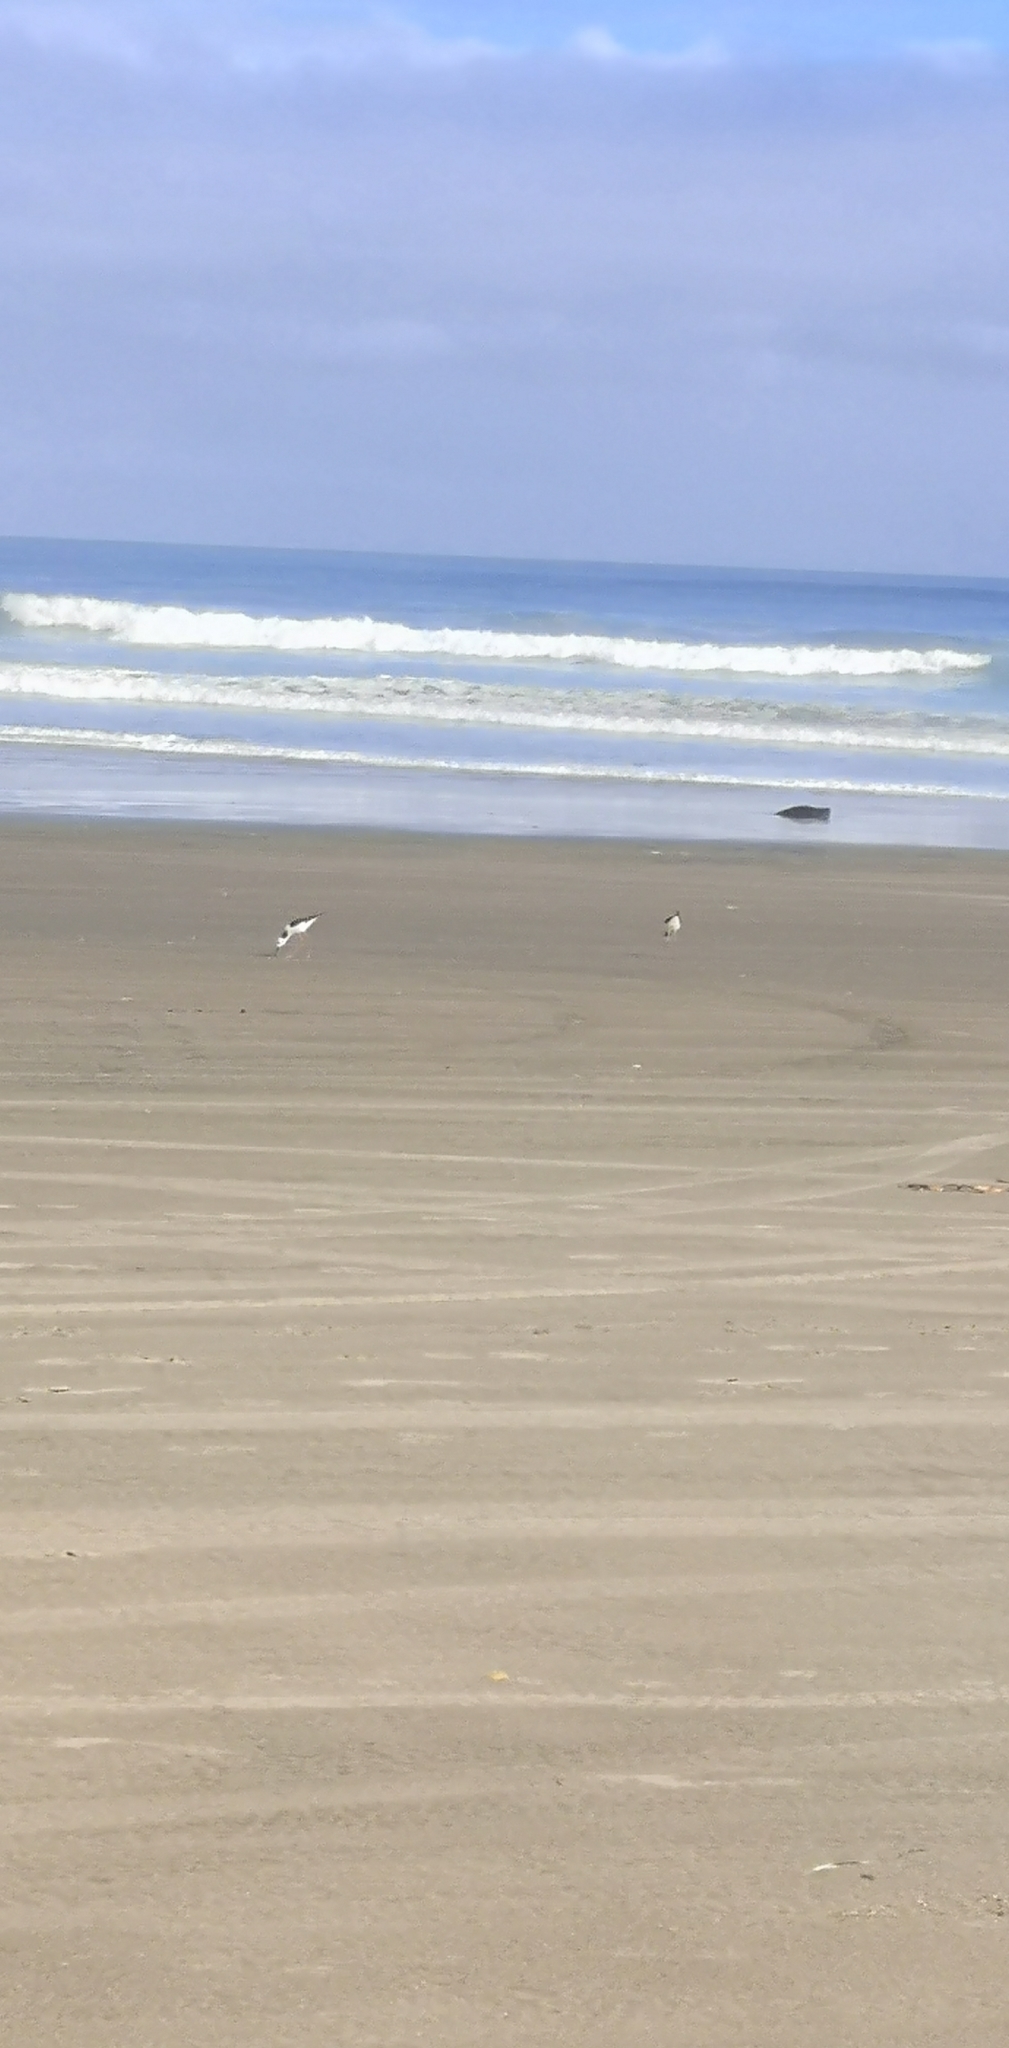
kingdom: Animalia
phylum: Chordata
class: Aves
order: Charadriiformes
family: Recurvirostridae
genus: Himantopus
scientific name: Himantopus leucocephalus
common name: White-headed stilt
